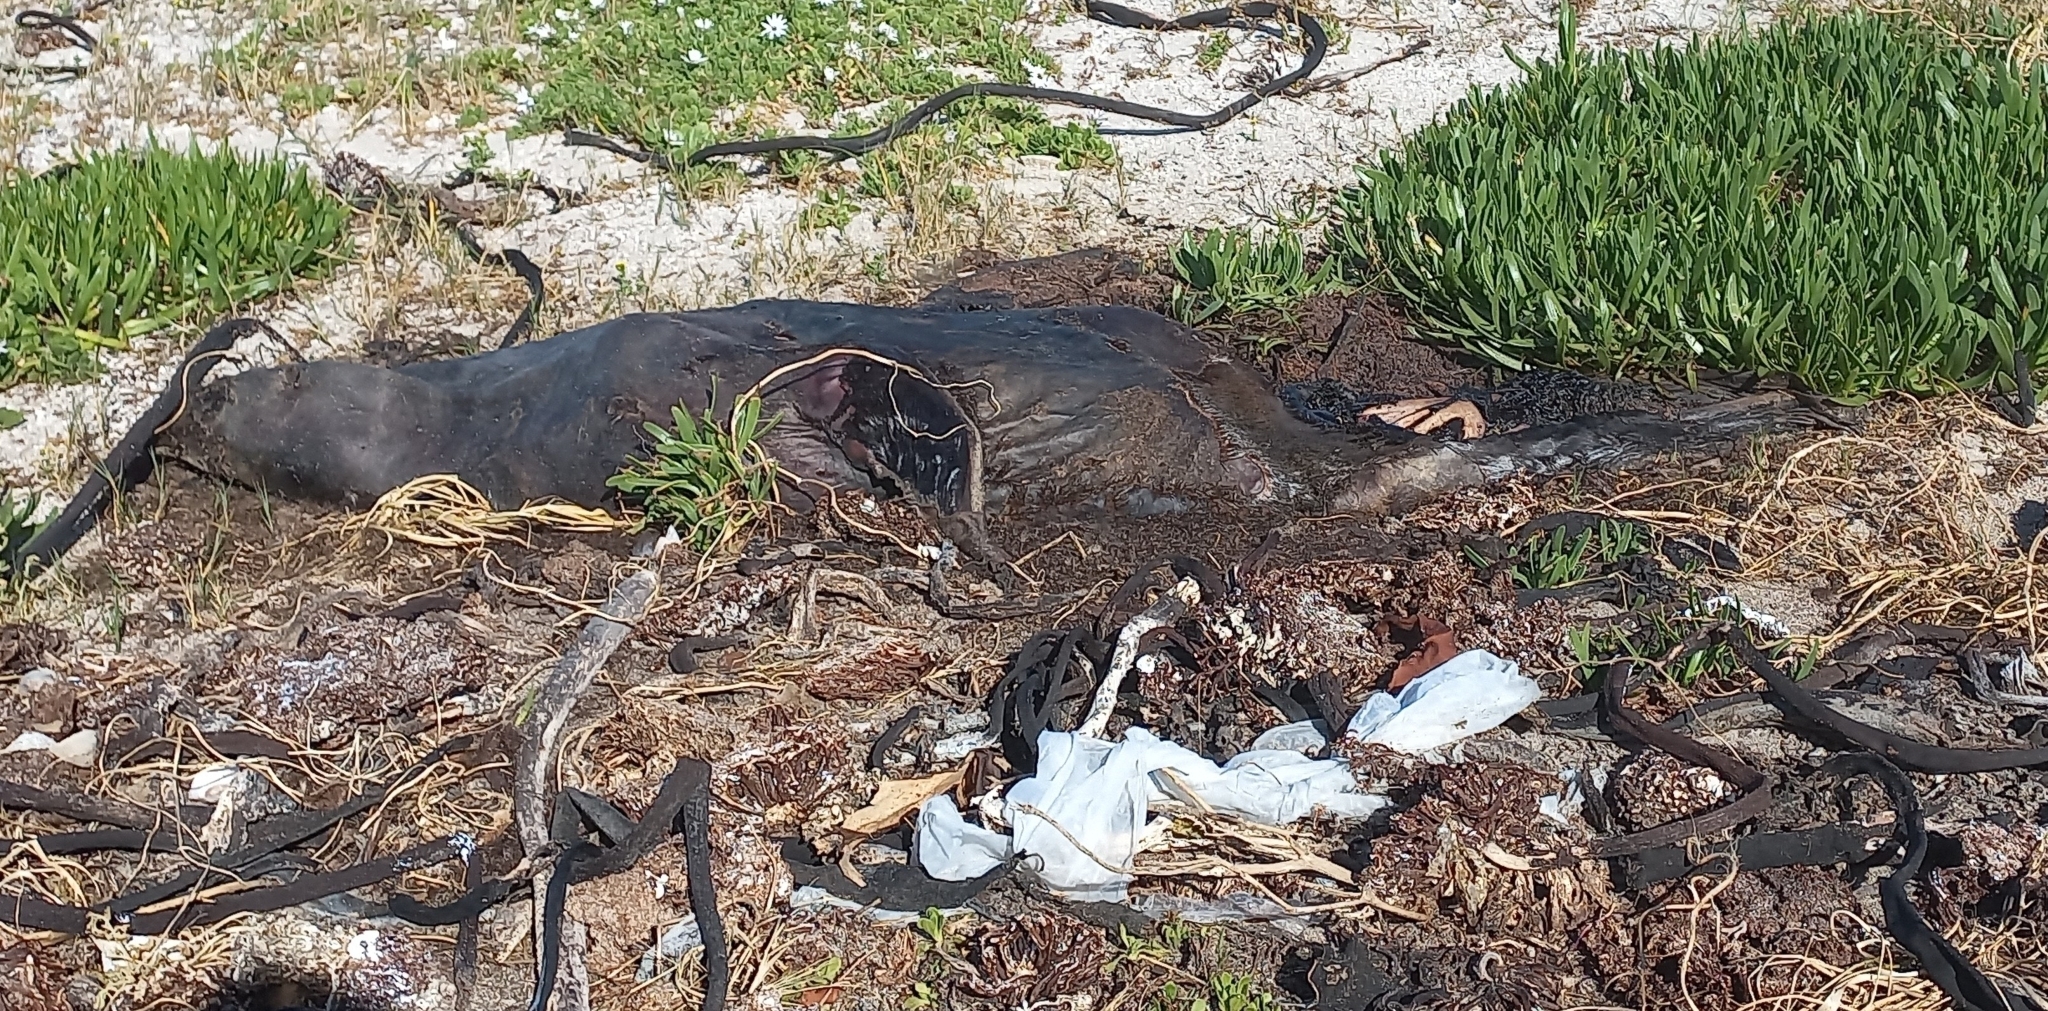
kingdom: Animalia
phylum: Chordata
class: Mammalia
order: Carnivora
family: Otariidae
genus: Arctocephalus
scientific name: Arctocephalus pusillus
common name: Brown fur seal
